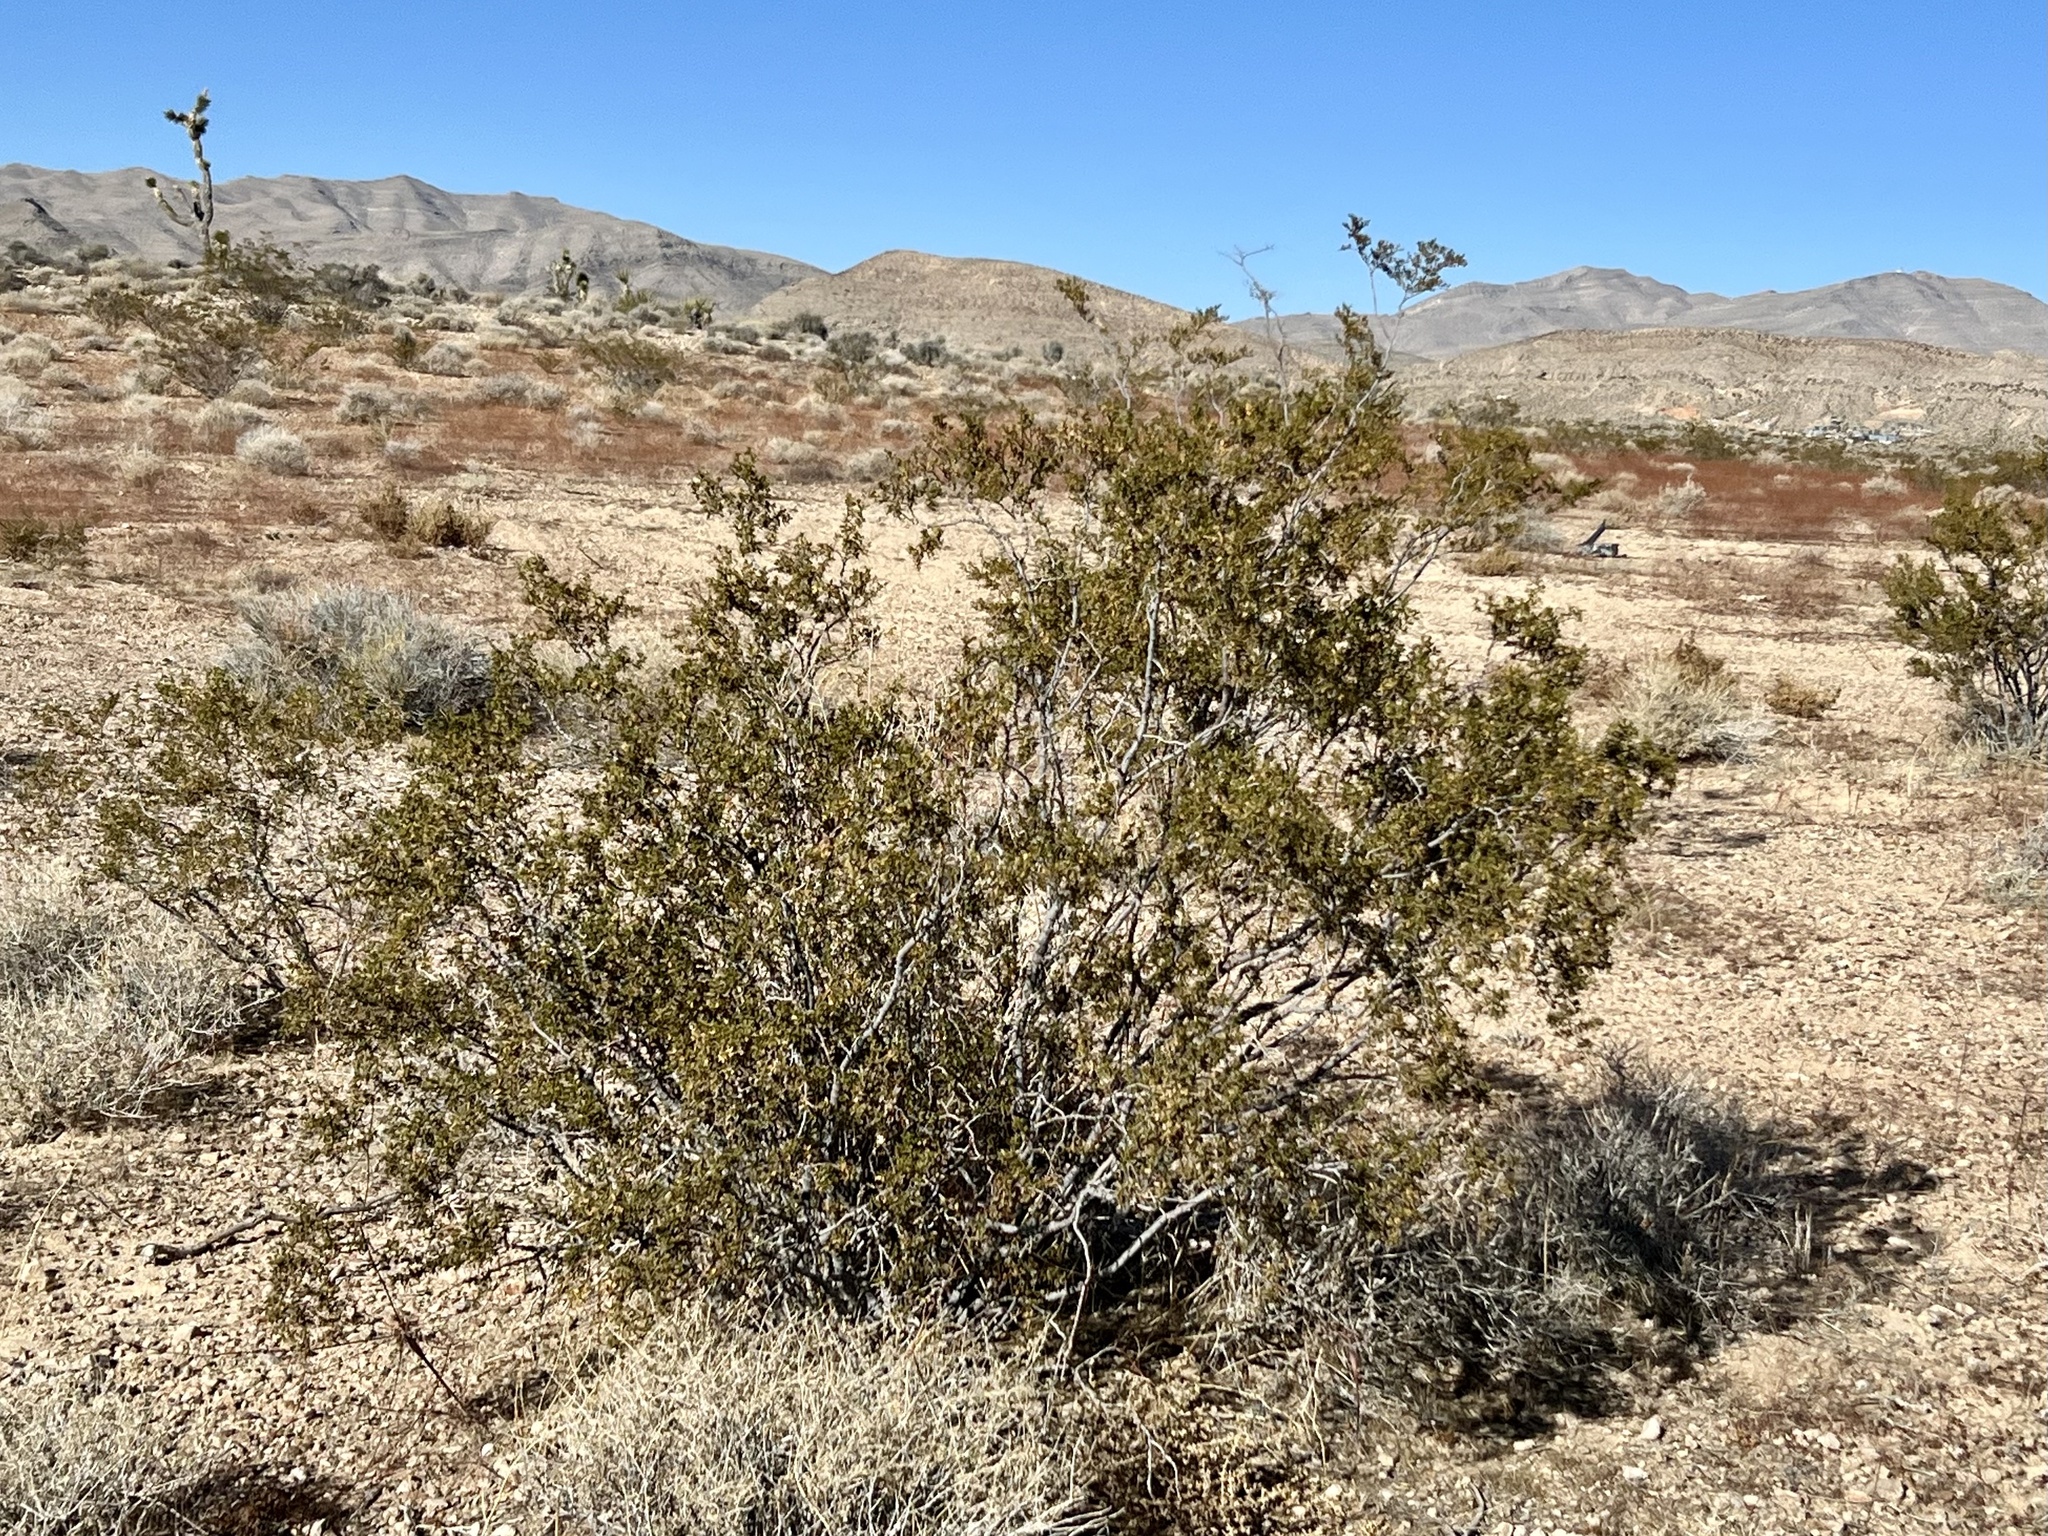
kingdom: Plantae
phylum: Tracheophyta
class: Magnoliopsida
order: Zygophyllales
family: Zygophyllaceae
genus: Larrea
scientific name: Larrea tridentata
